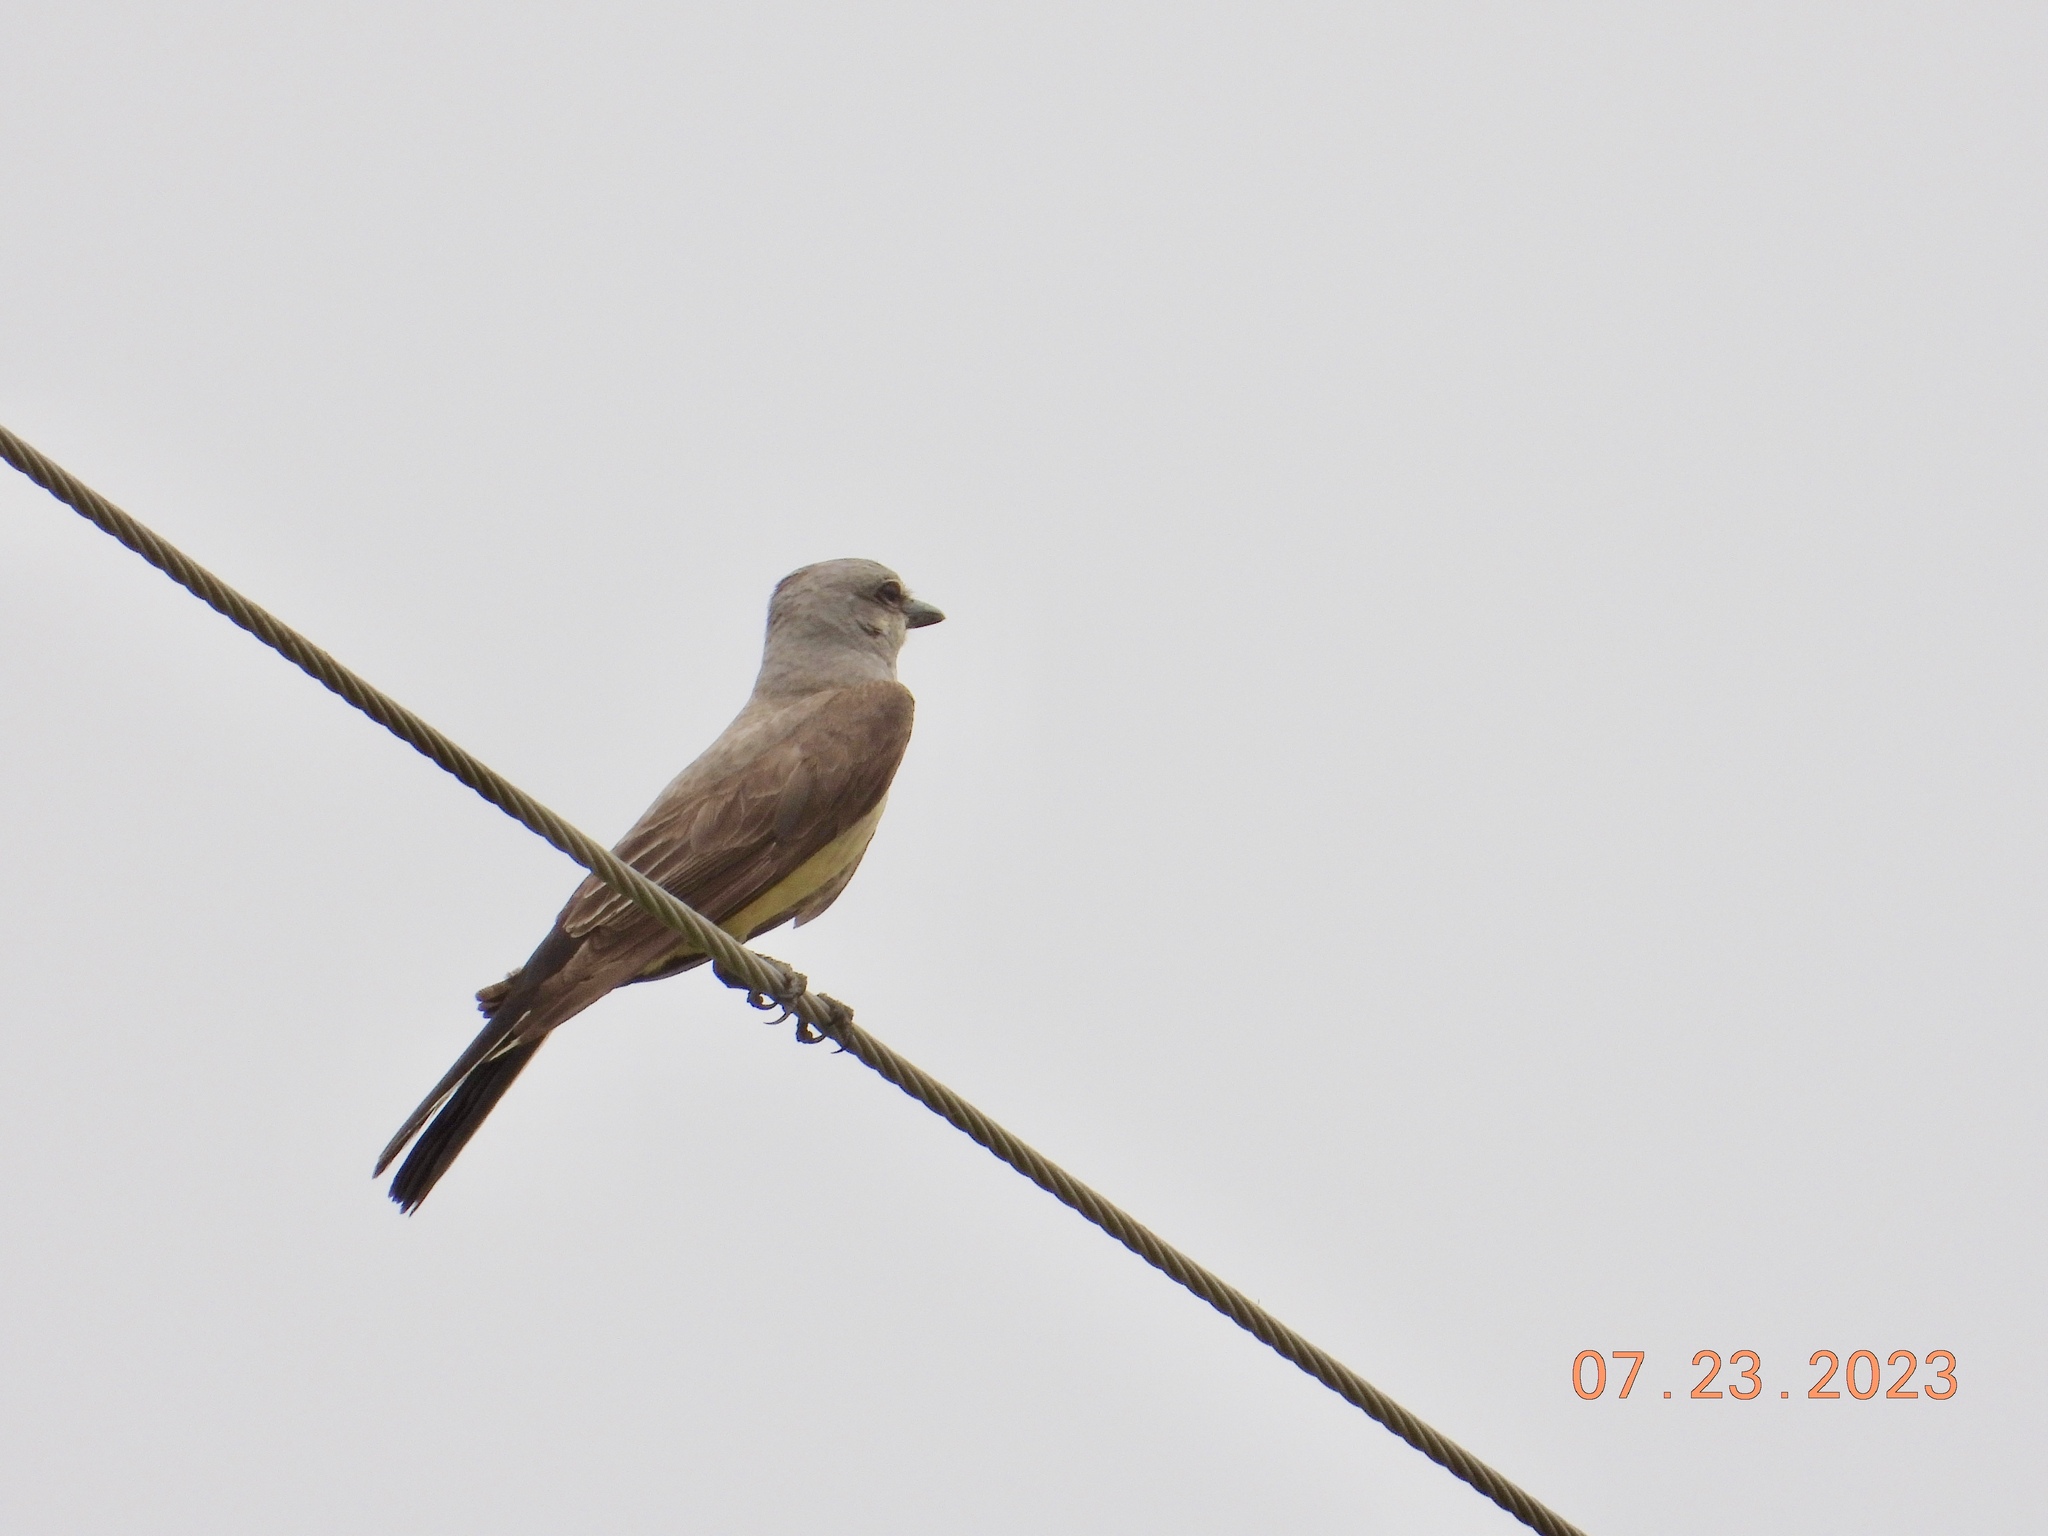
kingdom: Animalia
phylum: Chordata
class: Aves
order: Passeriformes
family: Tyrannidae
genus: Tyrannus
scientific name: Tyrannus verticalis
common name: Western kingbird
